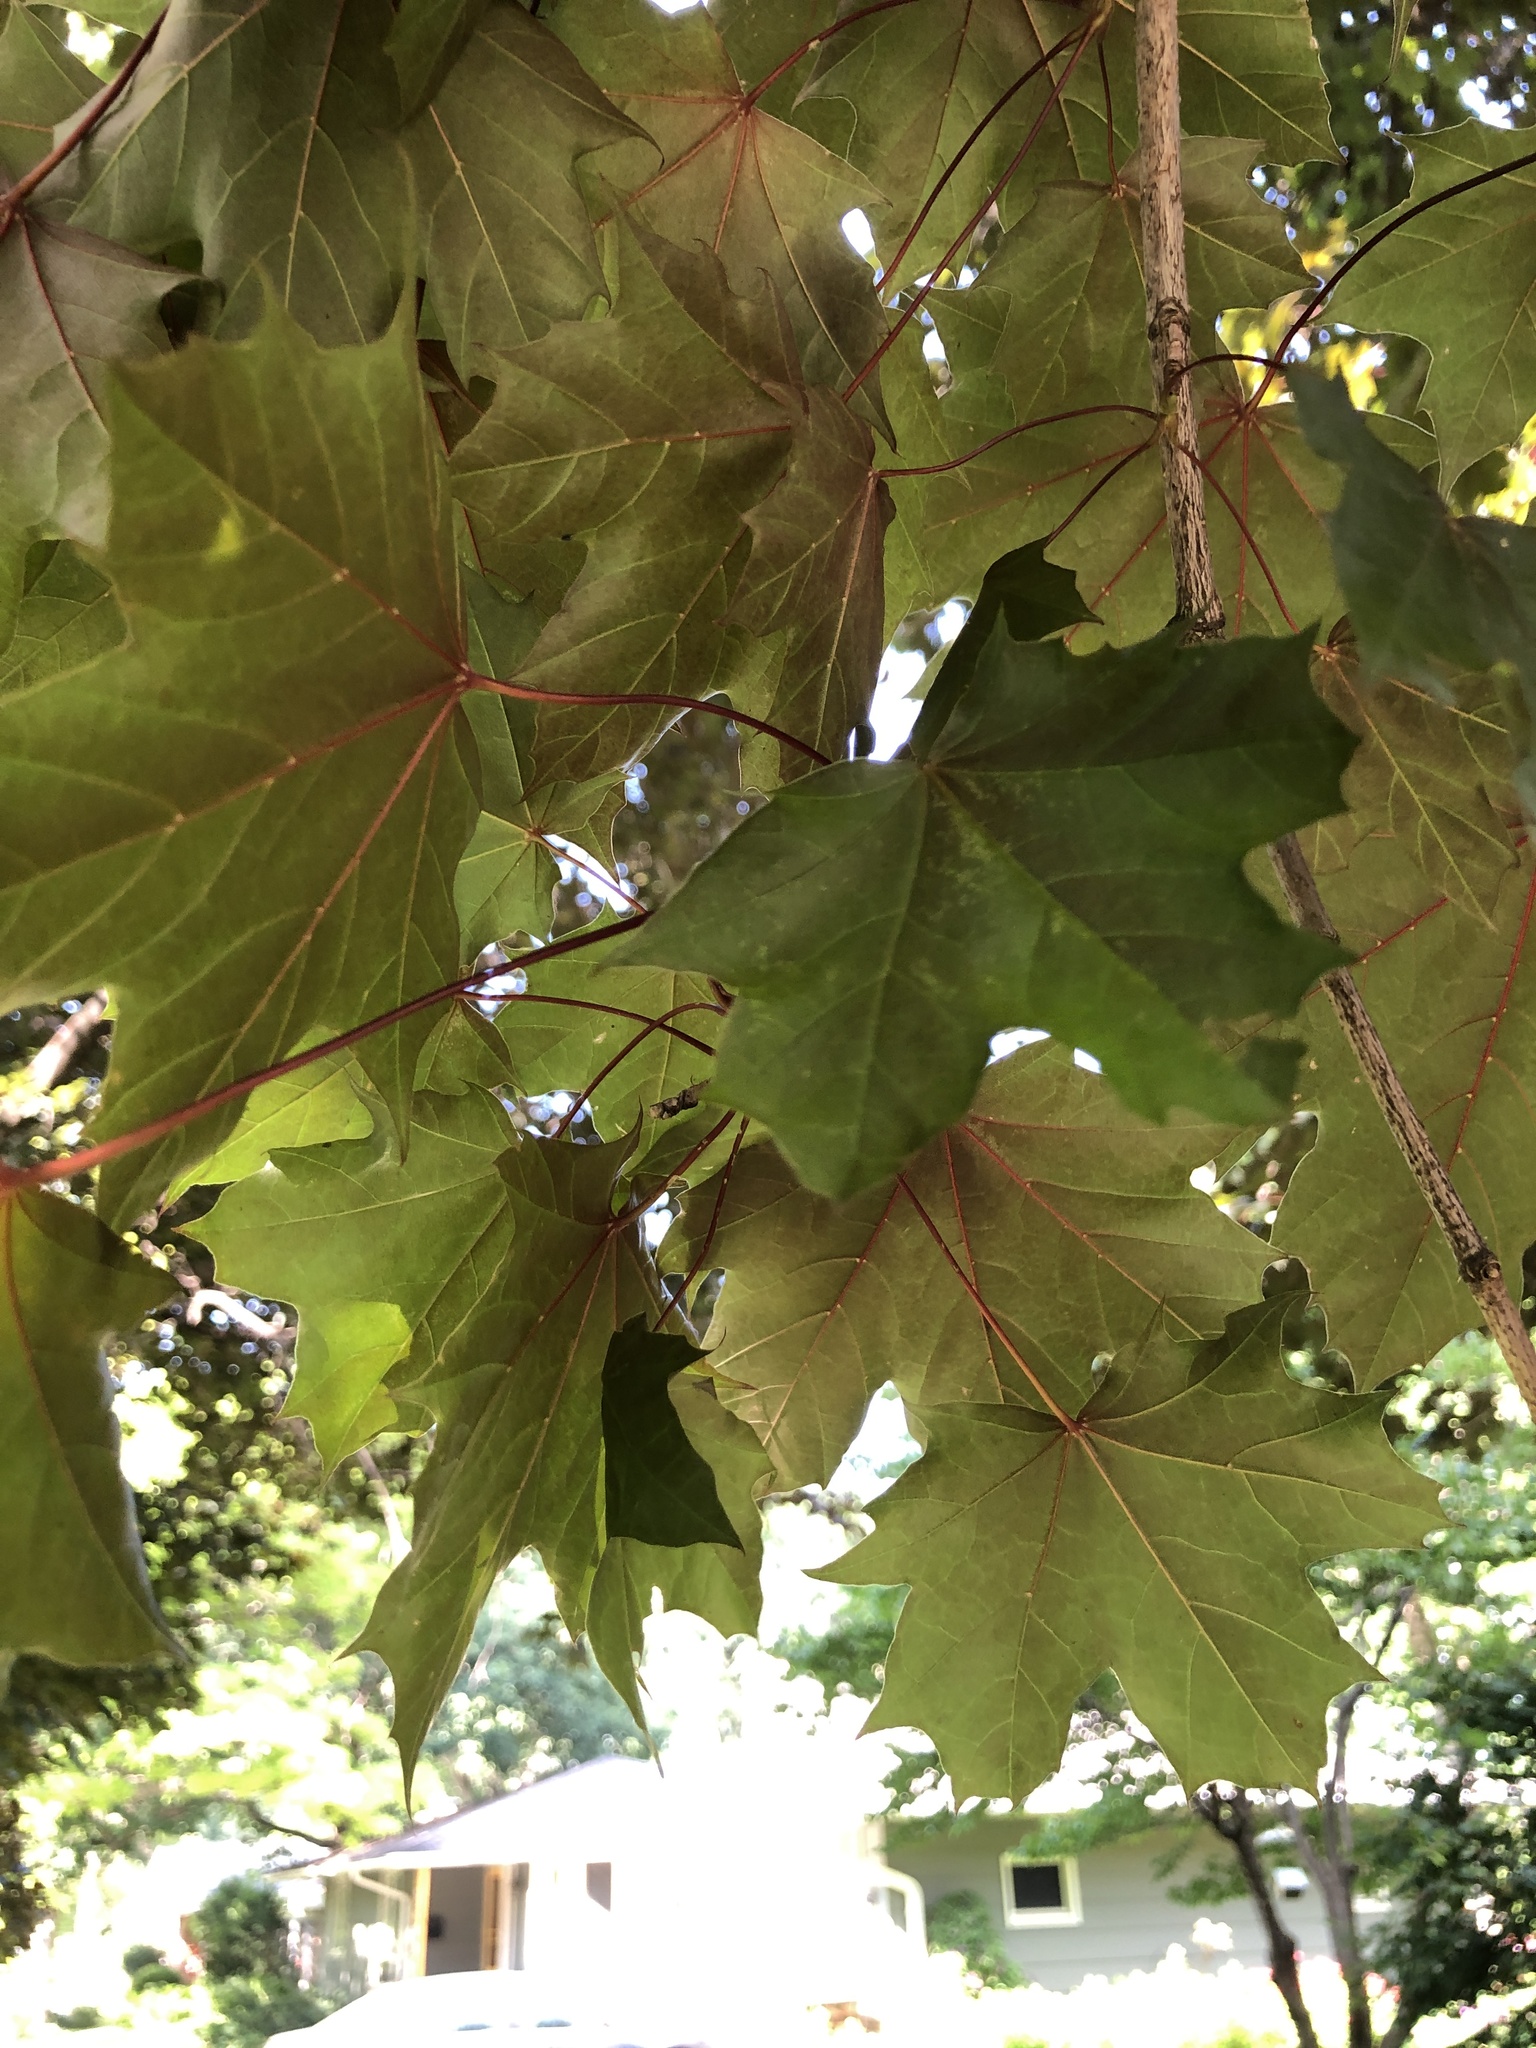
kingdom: Plantae
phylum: Tracheophyta
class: Magnoliopsida
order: Sapindales
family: Sapindaceae
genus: Acer
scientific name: Acer platanoides
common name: Norway maple
